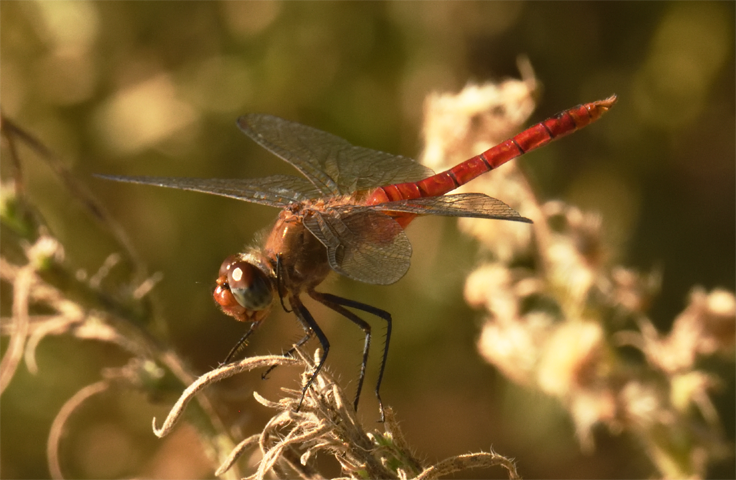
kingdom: Animalia
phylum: Arthropoda
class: Insecta
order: Odonata
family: Libellulidae
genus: Brachymesia
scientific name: Brachymesia furcata
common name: Red-taled pennant
